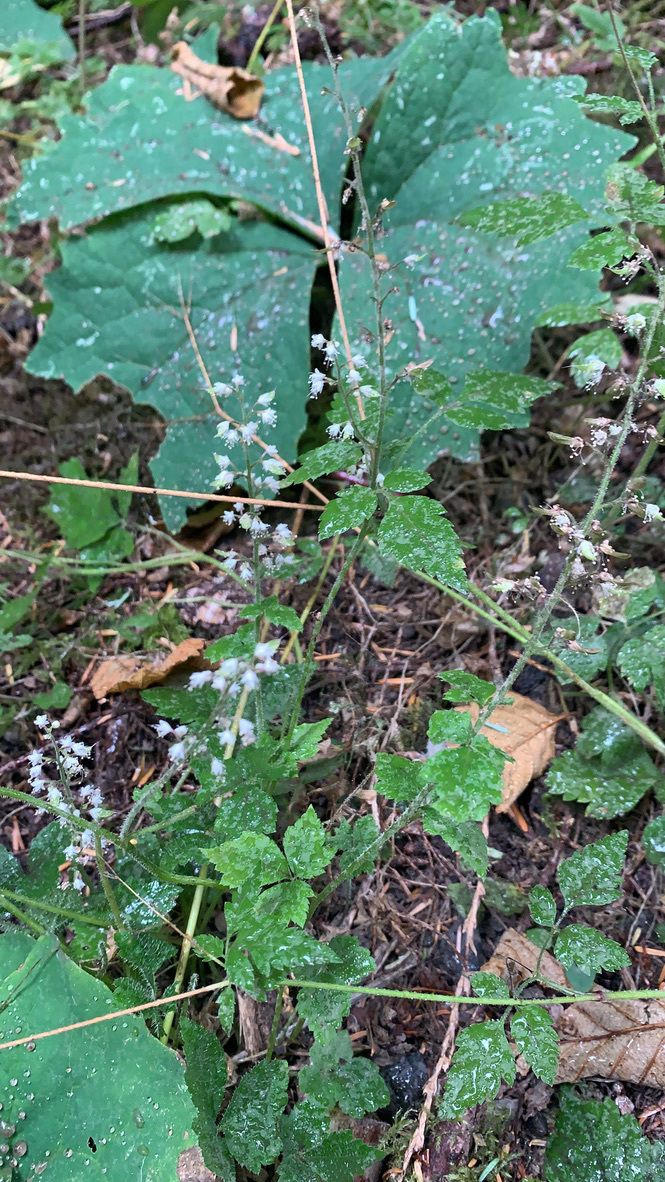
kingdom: Plantae
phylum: Tracheophyta
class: Magnoliopsida
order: Saxifragales
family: Saxifragaceae
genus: Tiarella
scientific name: Tiarella trifoliata
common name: Sugar-scoop
